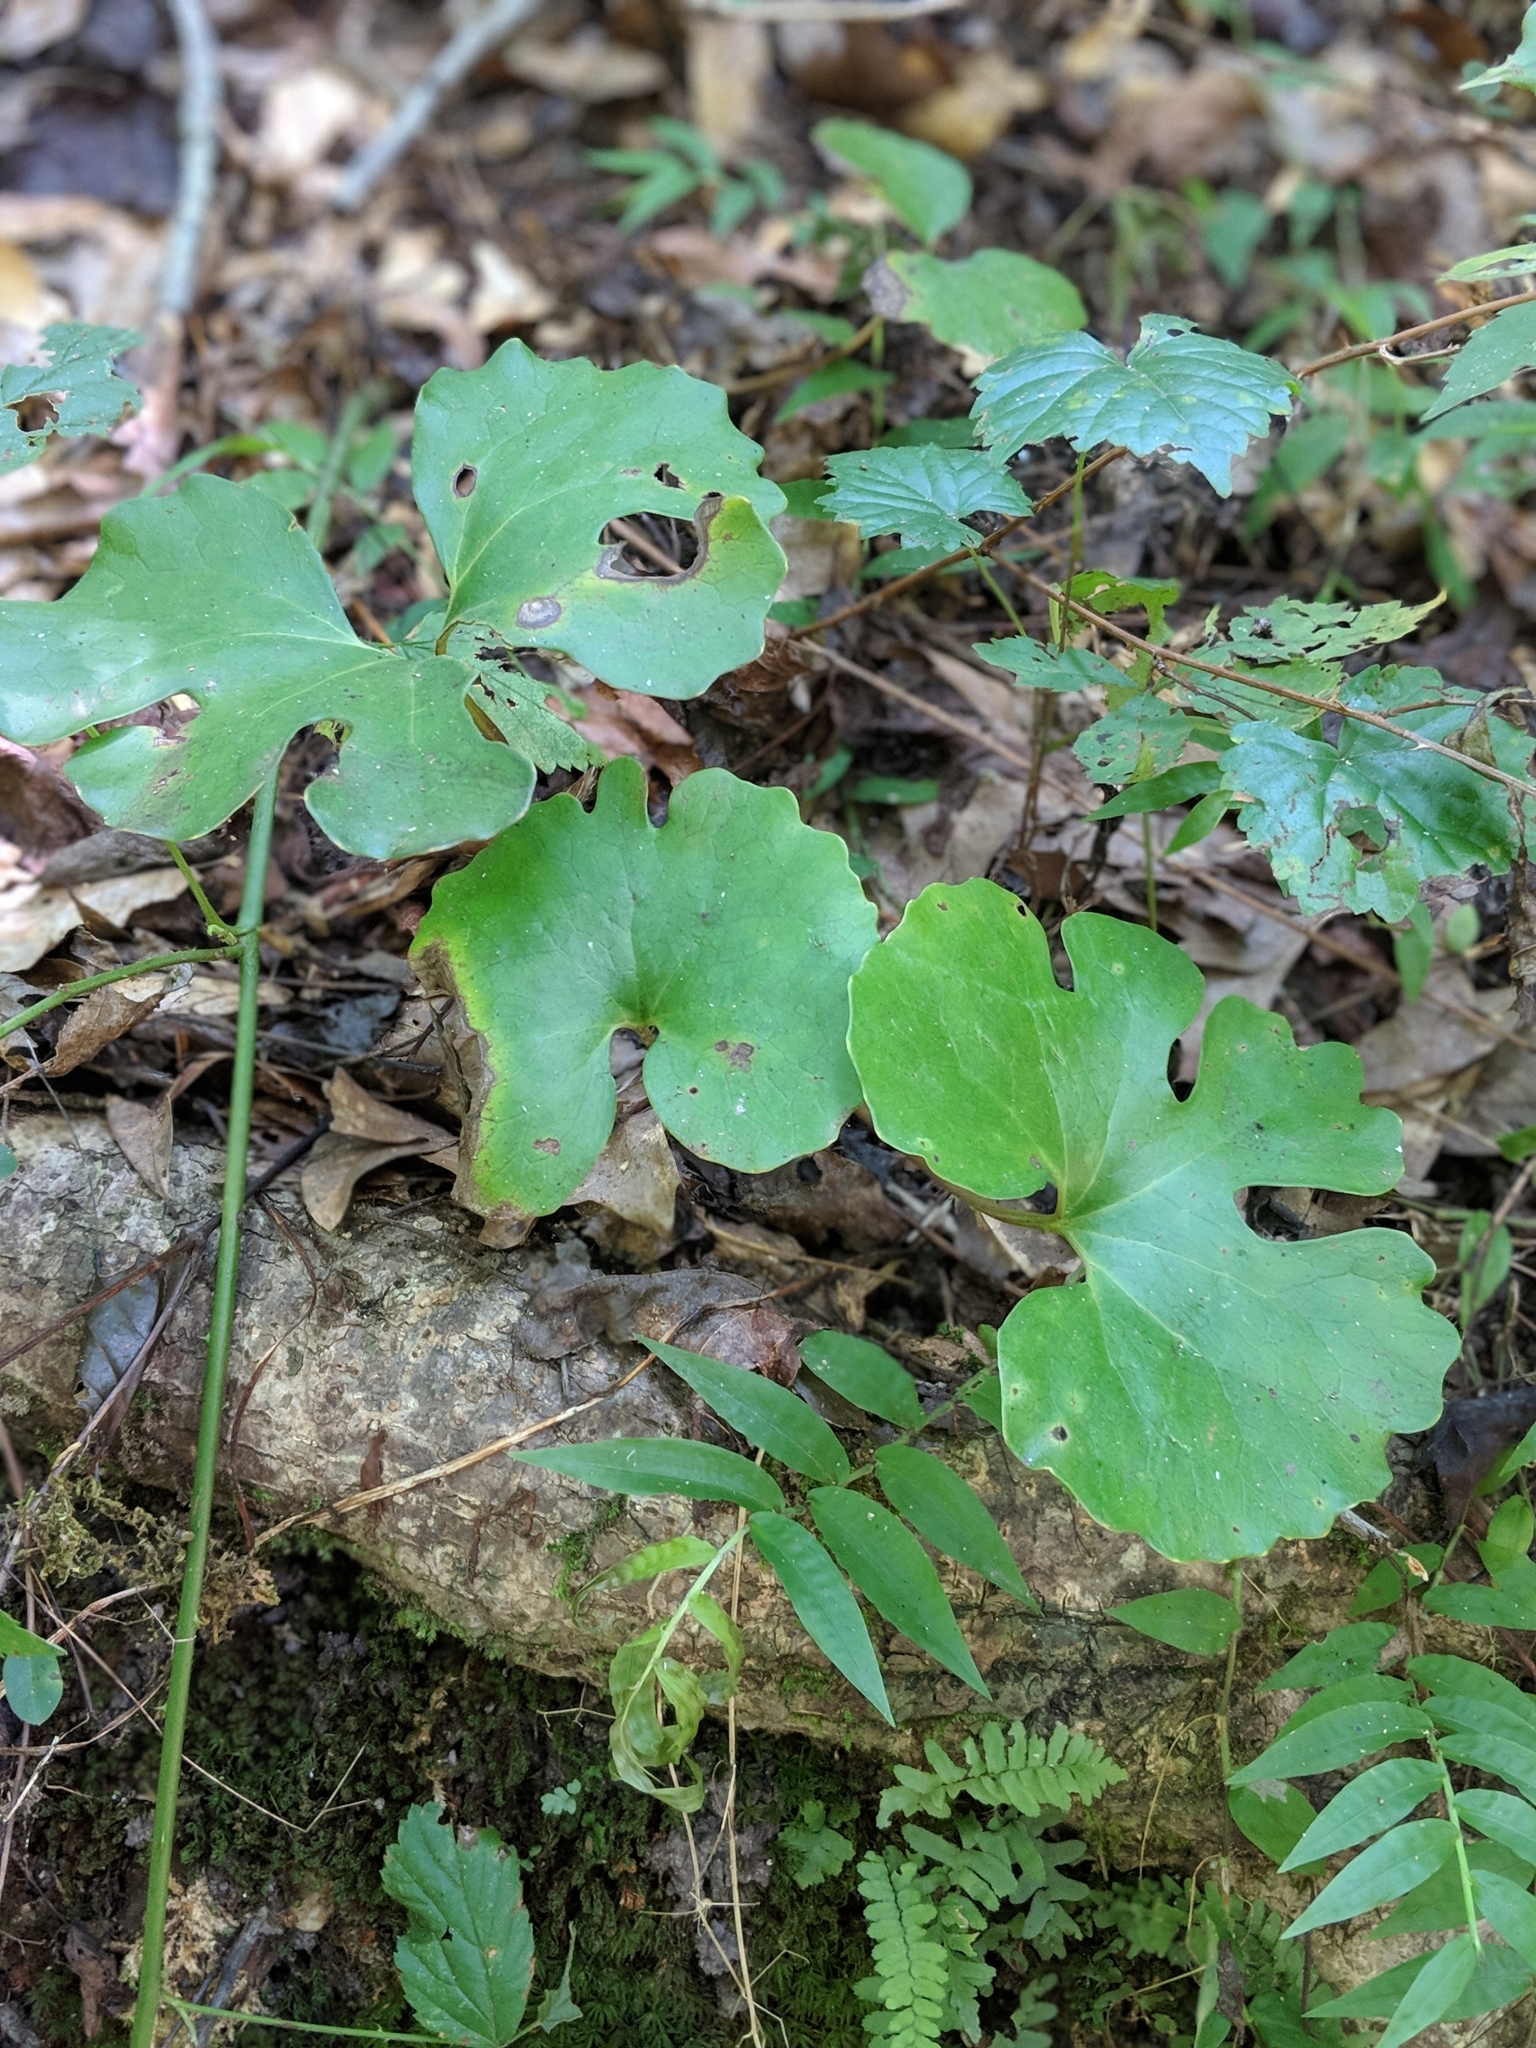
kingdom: Plantae
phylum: Tracheophyta
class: Magnoliopsida
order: Ranunculales
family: Papaveraceae
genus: Sanguinaria
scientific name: Sanguinaria canadensis
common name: Bloodroot
